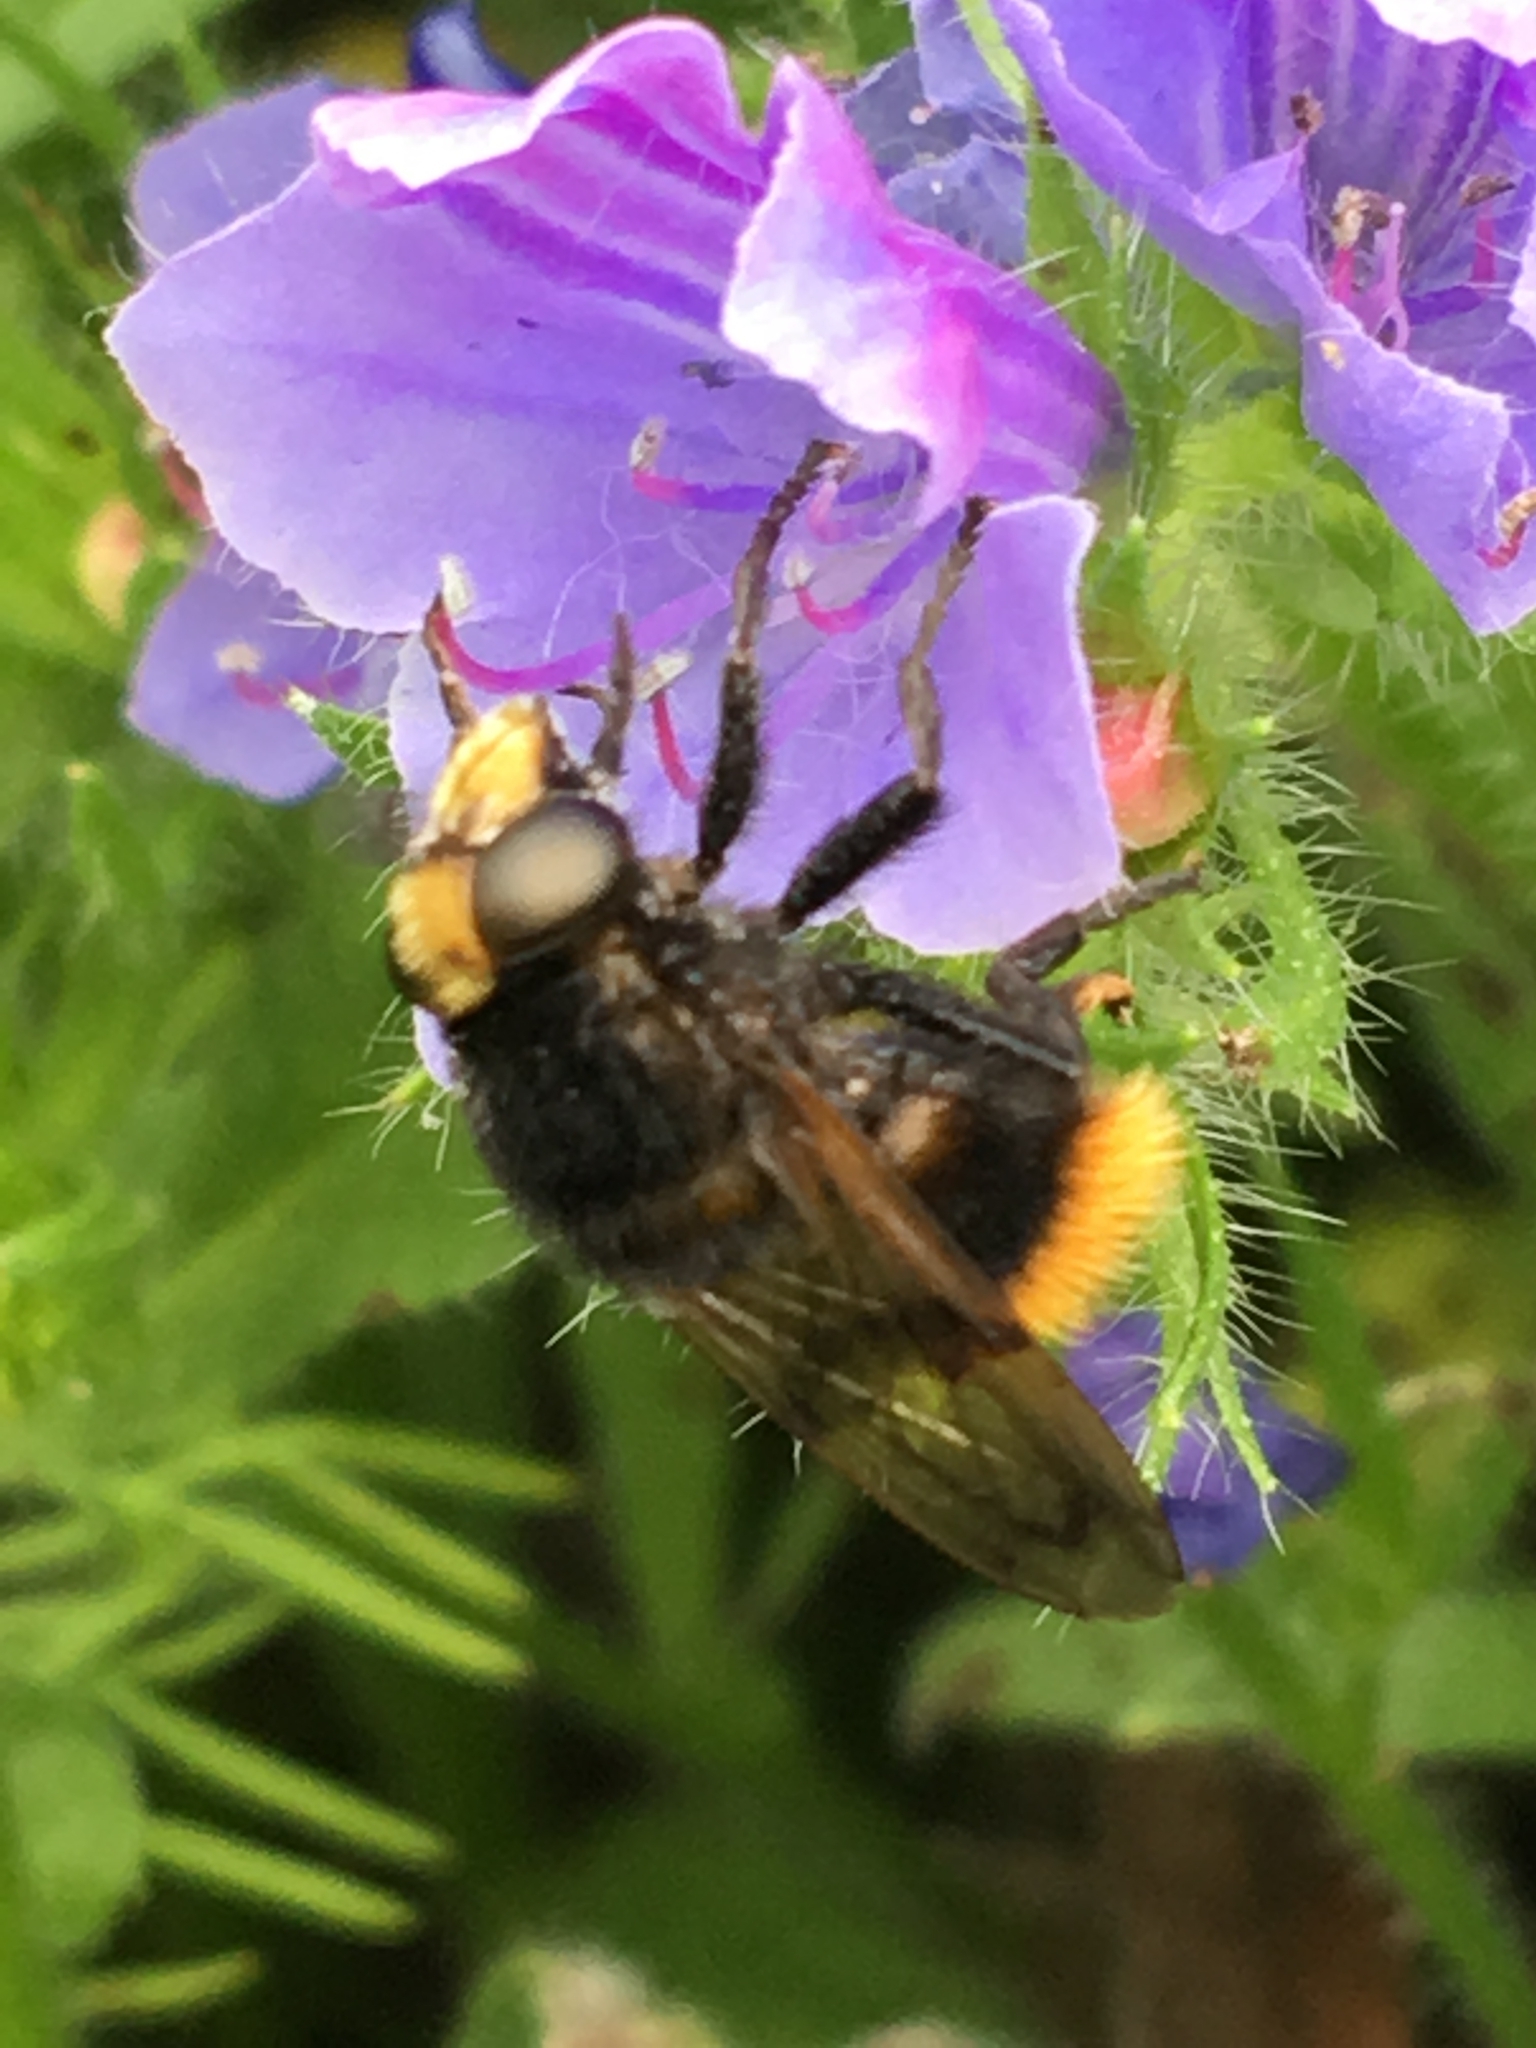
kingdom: Animalia
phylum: Arthropoda
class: Insecta
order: Diptera
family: Syrphidae
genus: Volucella
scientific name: Volucella bombylans
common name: Bumble bee hover fly
